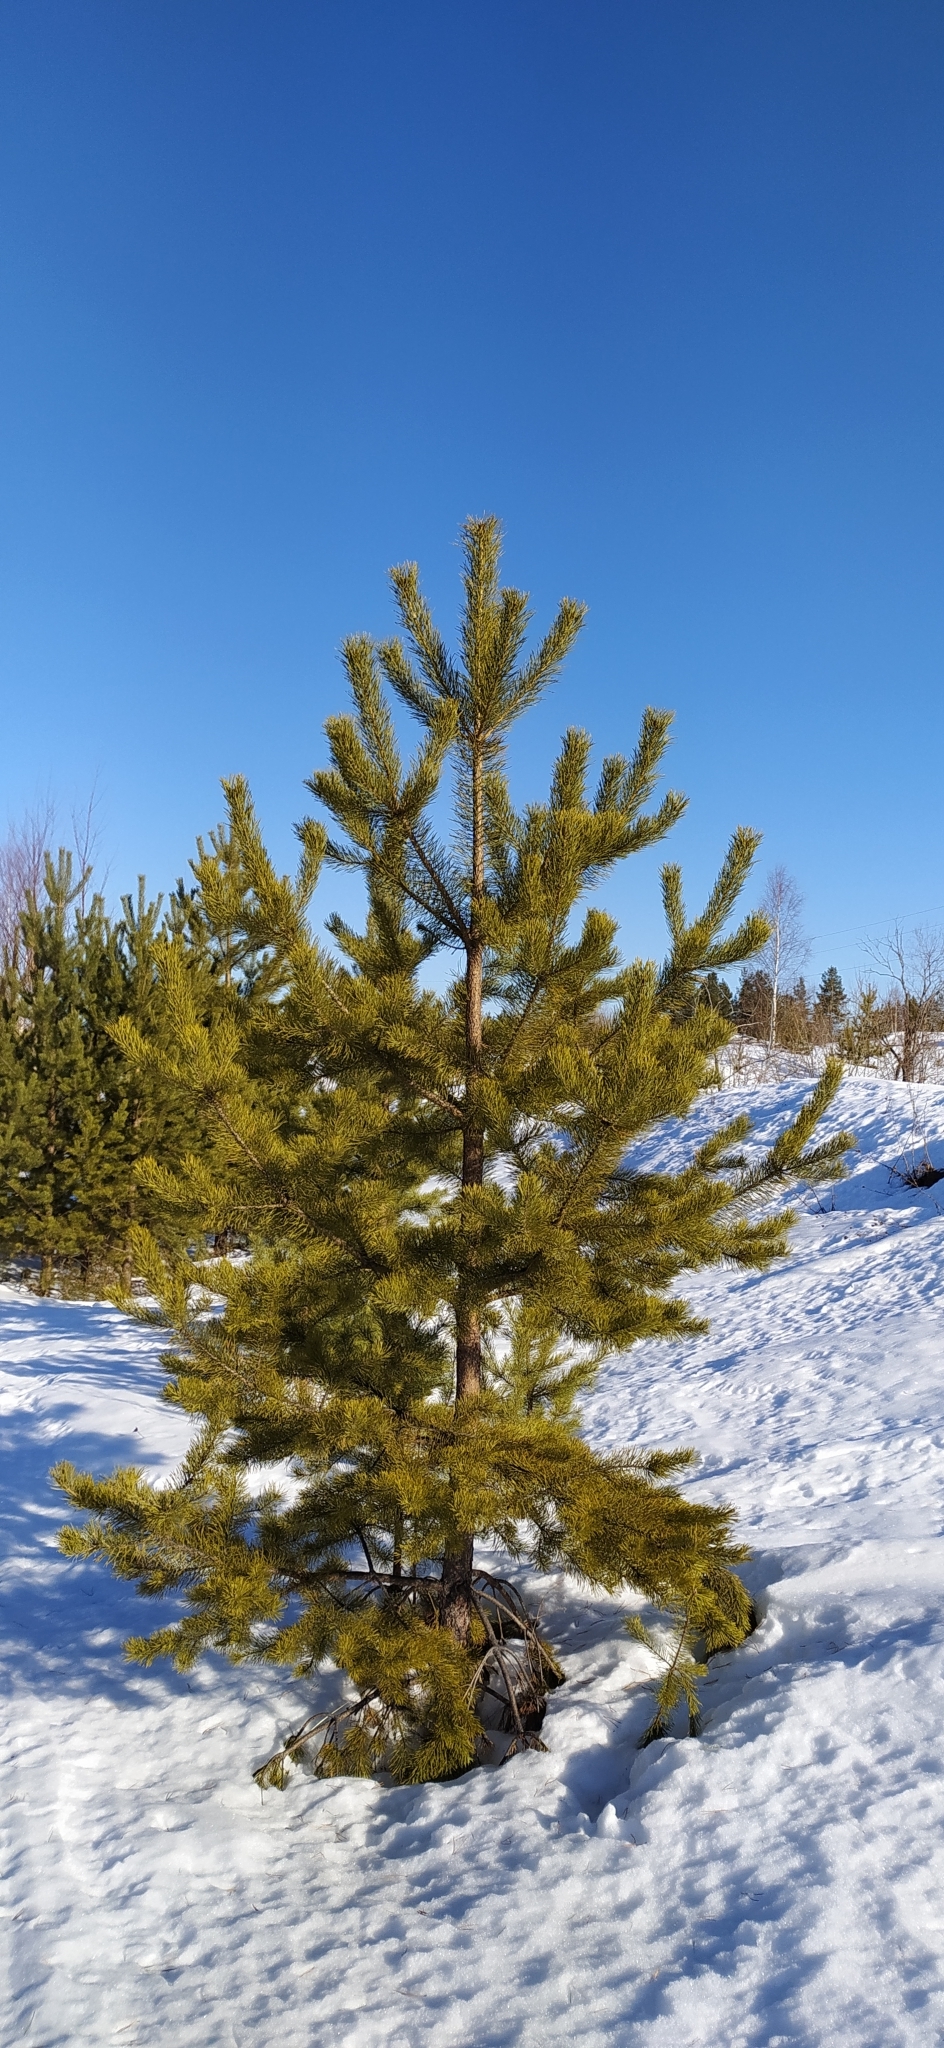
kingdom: Plantae
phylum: Tracheophyta
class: Pinopsida
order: Pinales
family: Pinaceae
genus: Pinus
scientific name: Pinus sylvestris
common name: Scots pine
